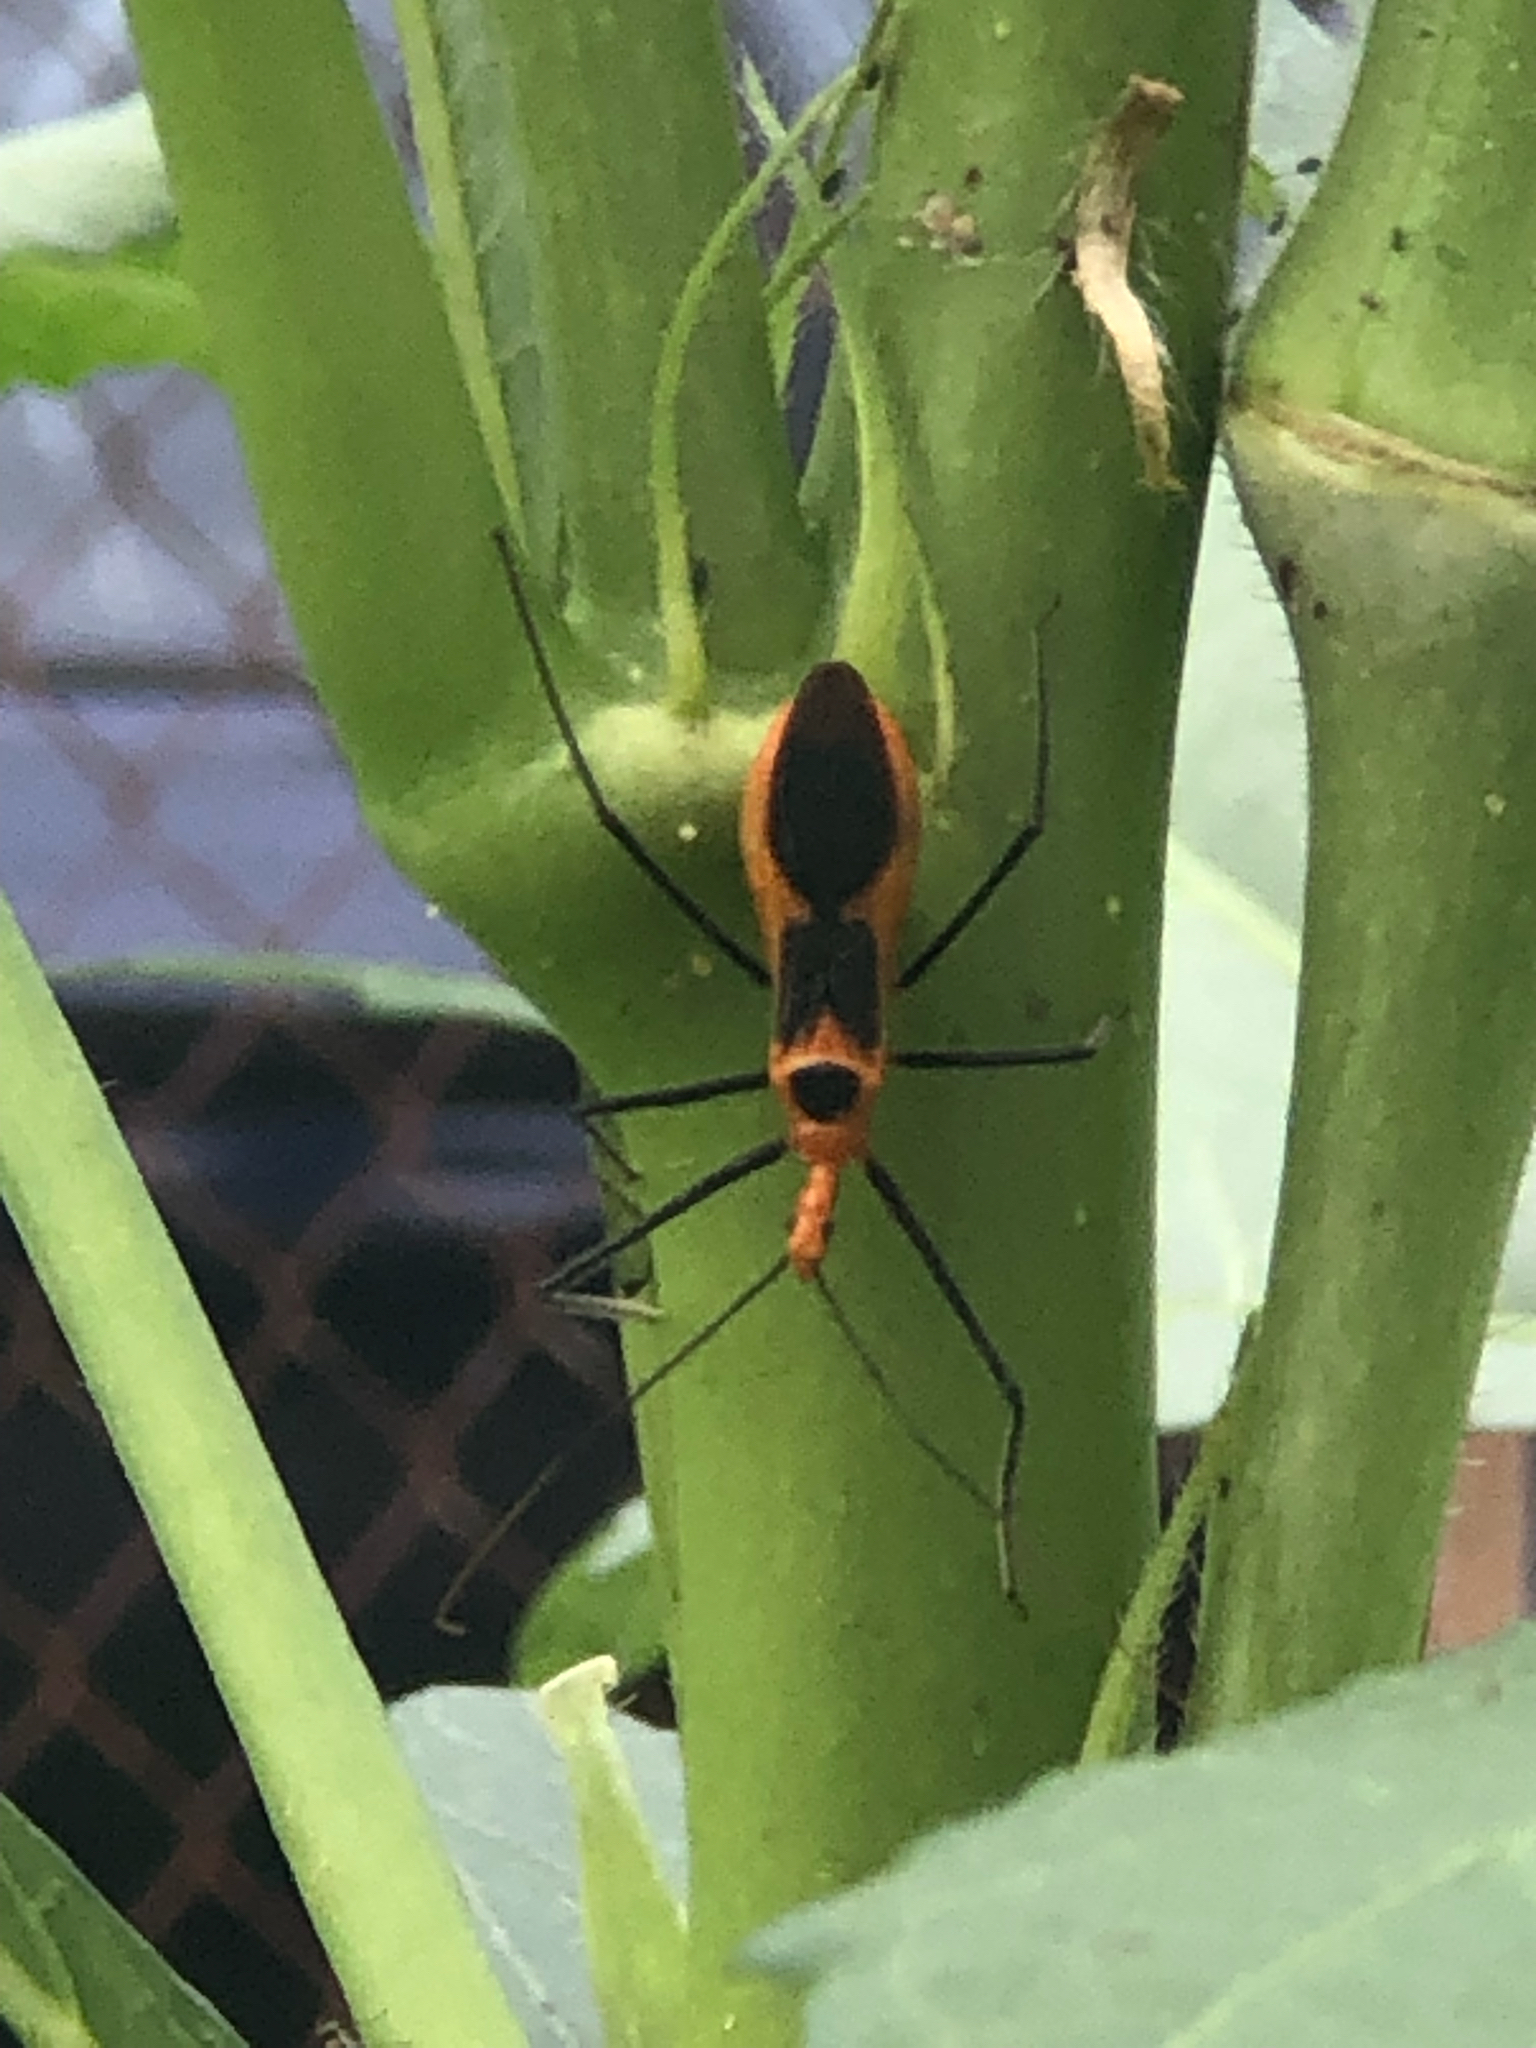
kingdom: Animalia
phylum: Arthropoda
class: Insecta
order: Hemiptera
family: Reduviidae
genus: Zelus
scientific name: Zelus longipes
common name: Milkweed assassin bug
